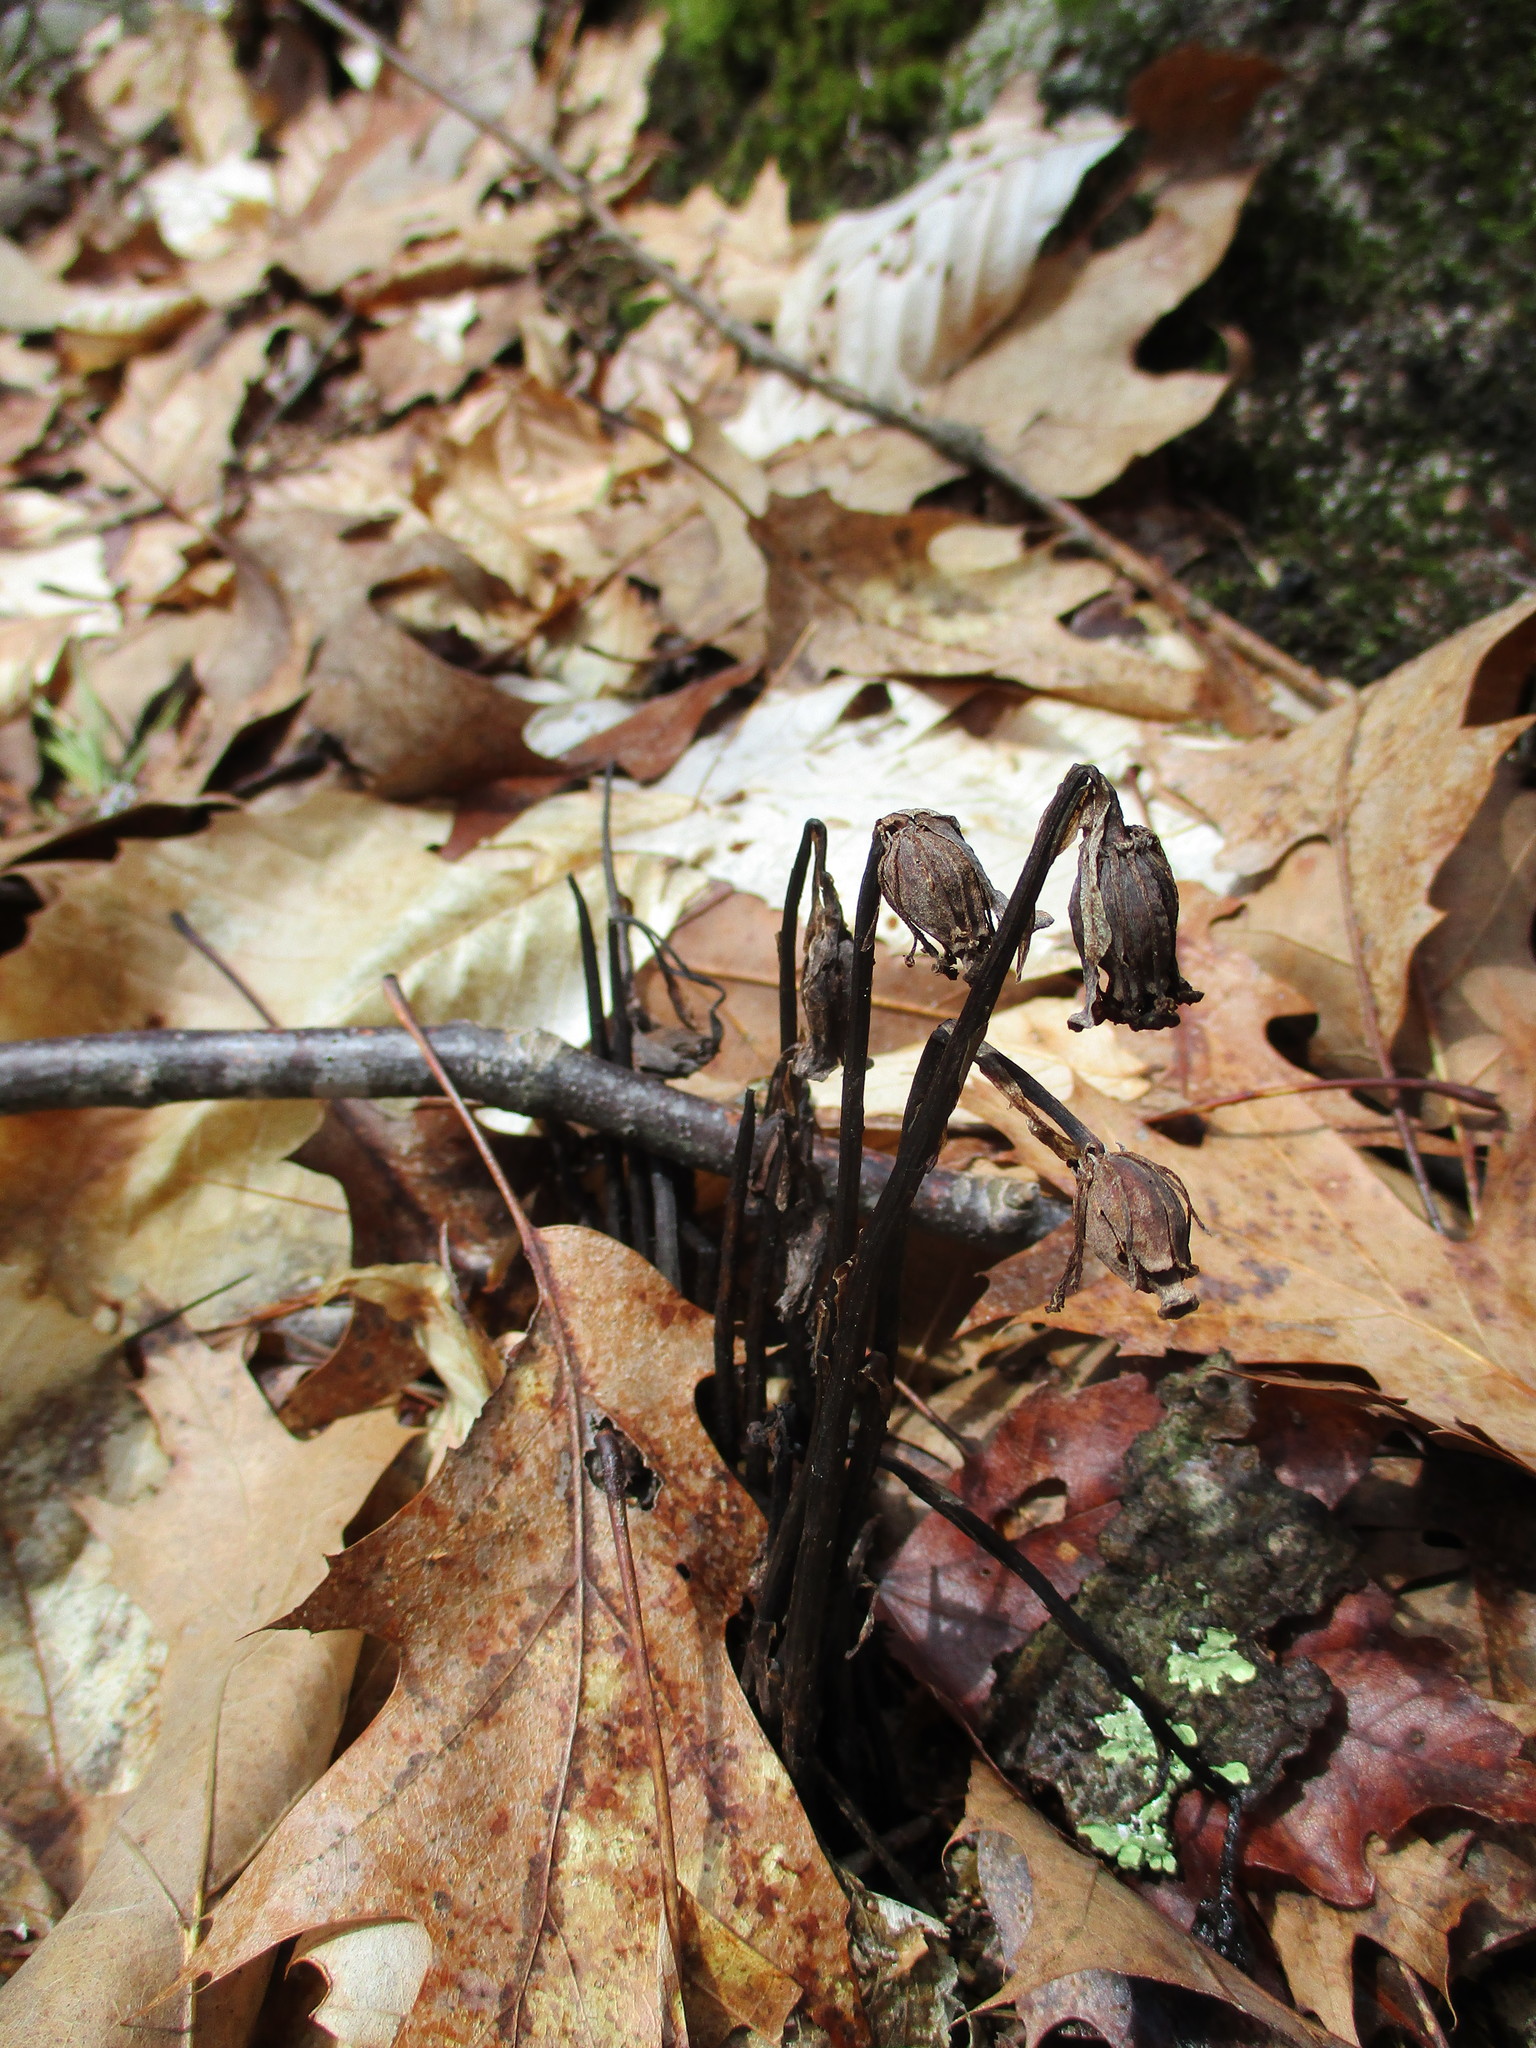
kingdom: Plantae
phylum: Tracheophyta
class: Magnoliopsida
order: Ericales
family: Ericaceae
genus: Monotropa
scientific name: Monotropa uniflora
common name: Convulsion root
